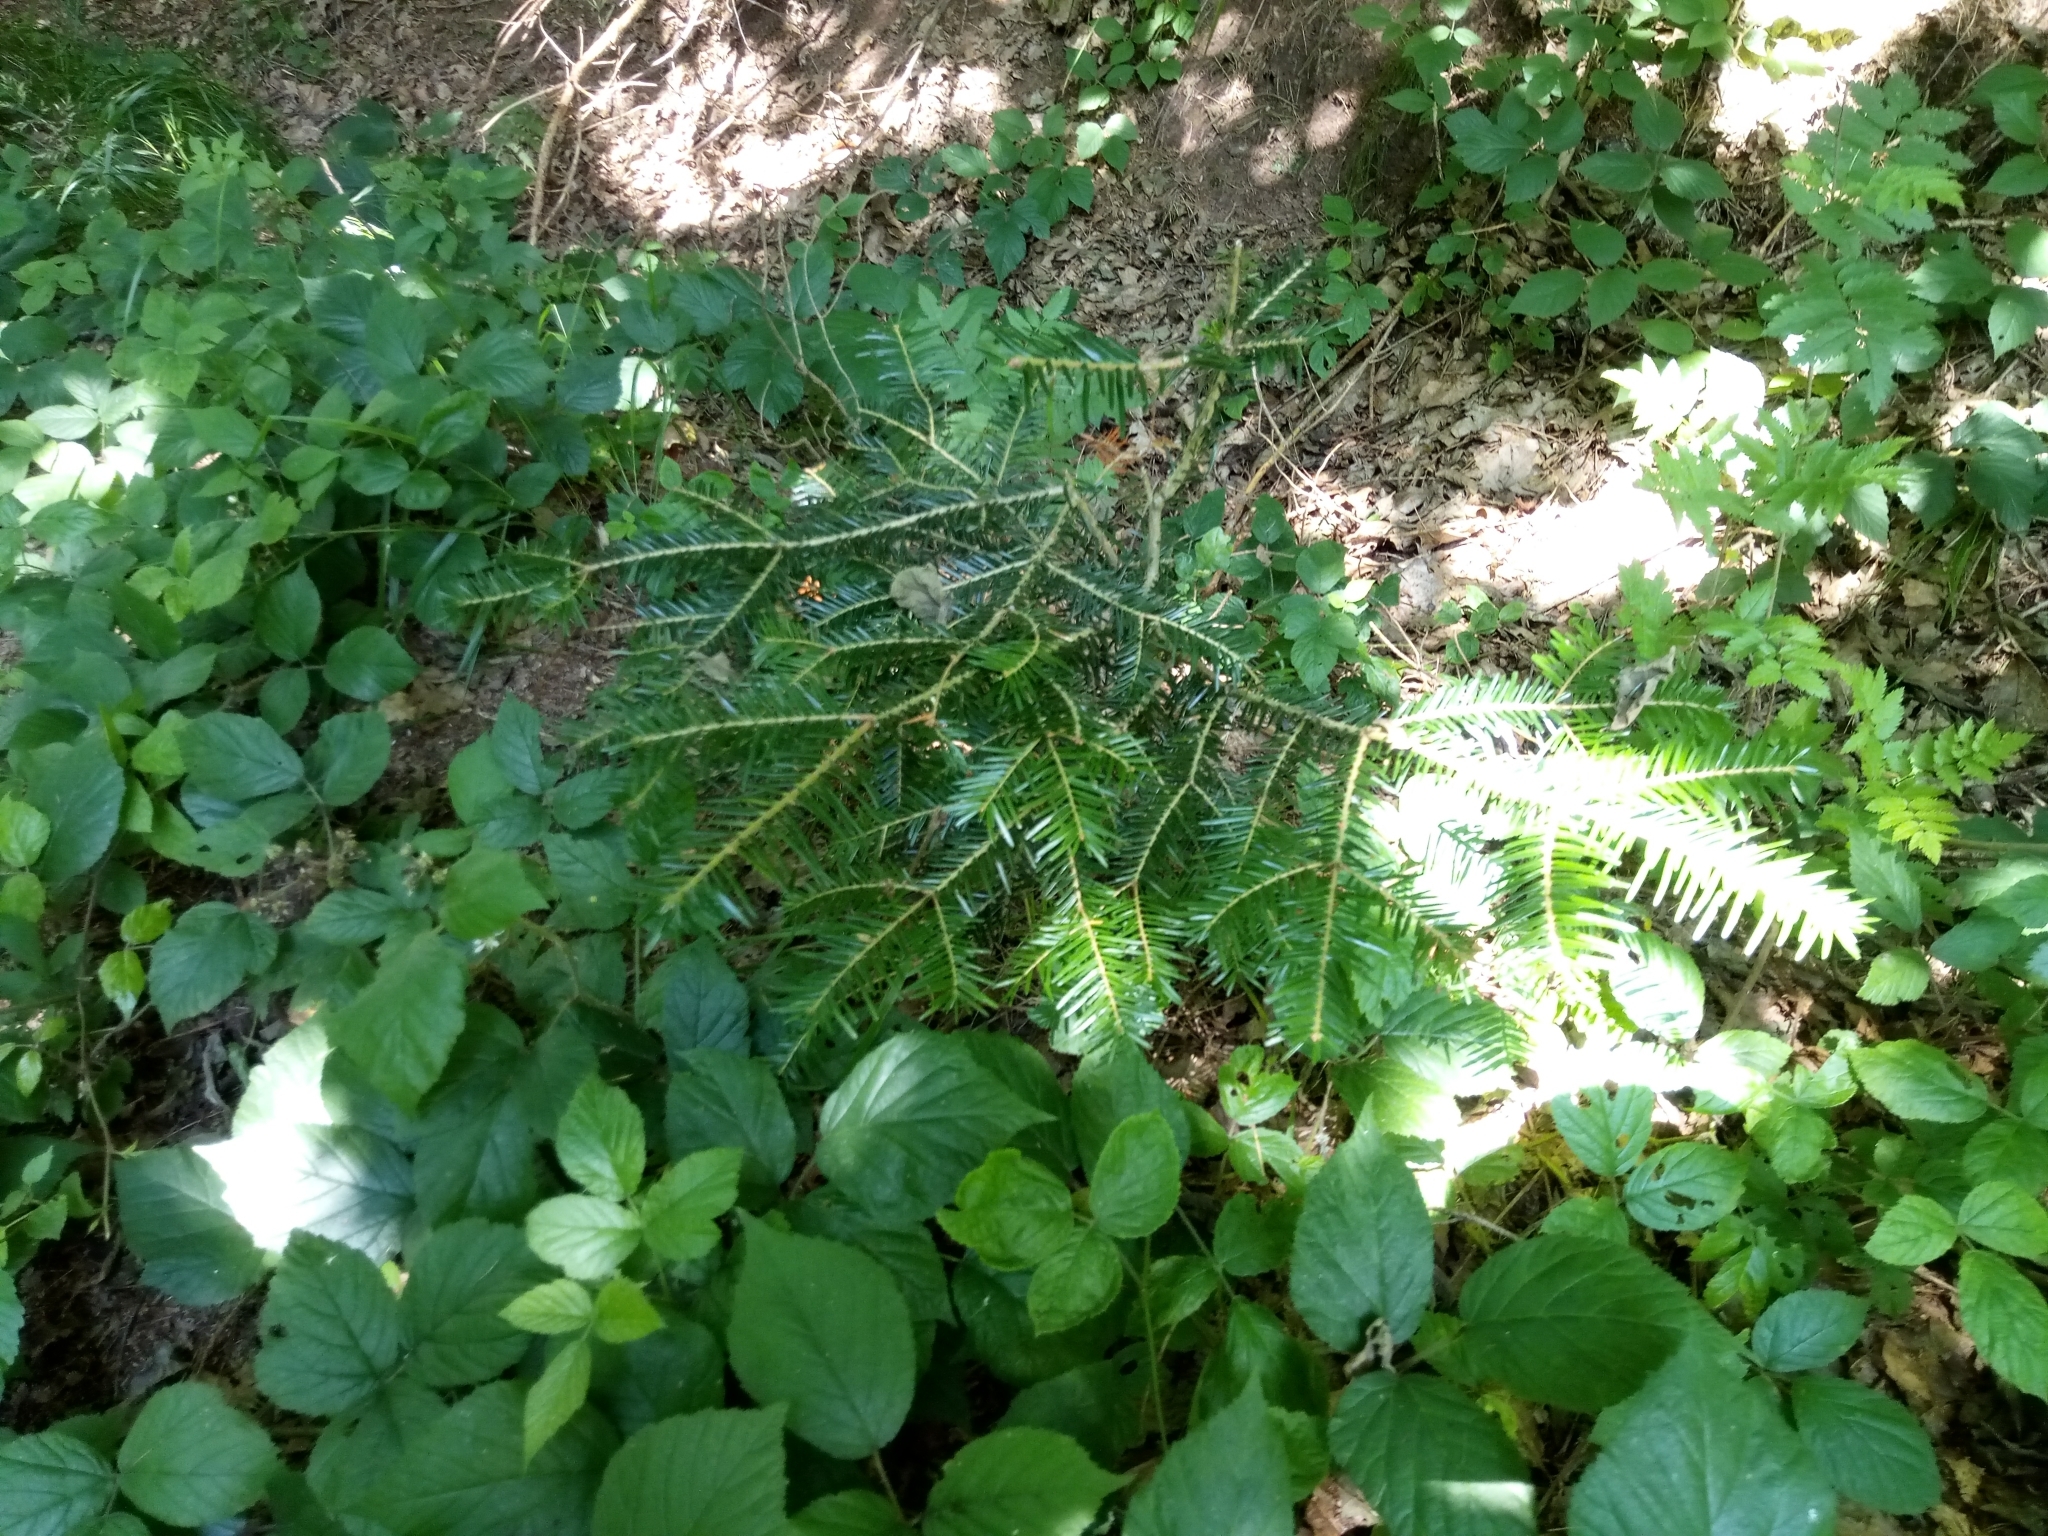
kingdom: Plantae
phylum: Tracheophyta
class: Pinopsida
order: Pinales
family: Pinaceae
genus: Abies
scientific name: Abies alba
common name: Silver fir
